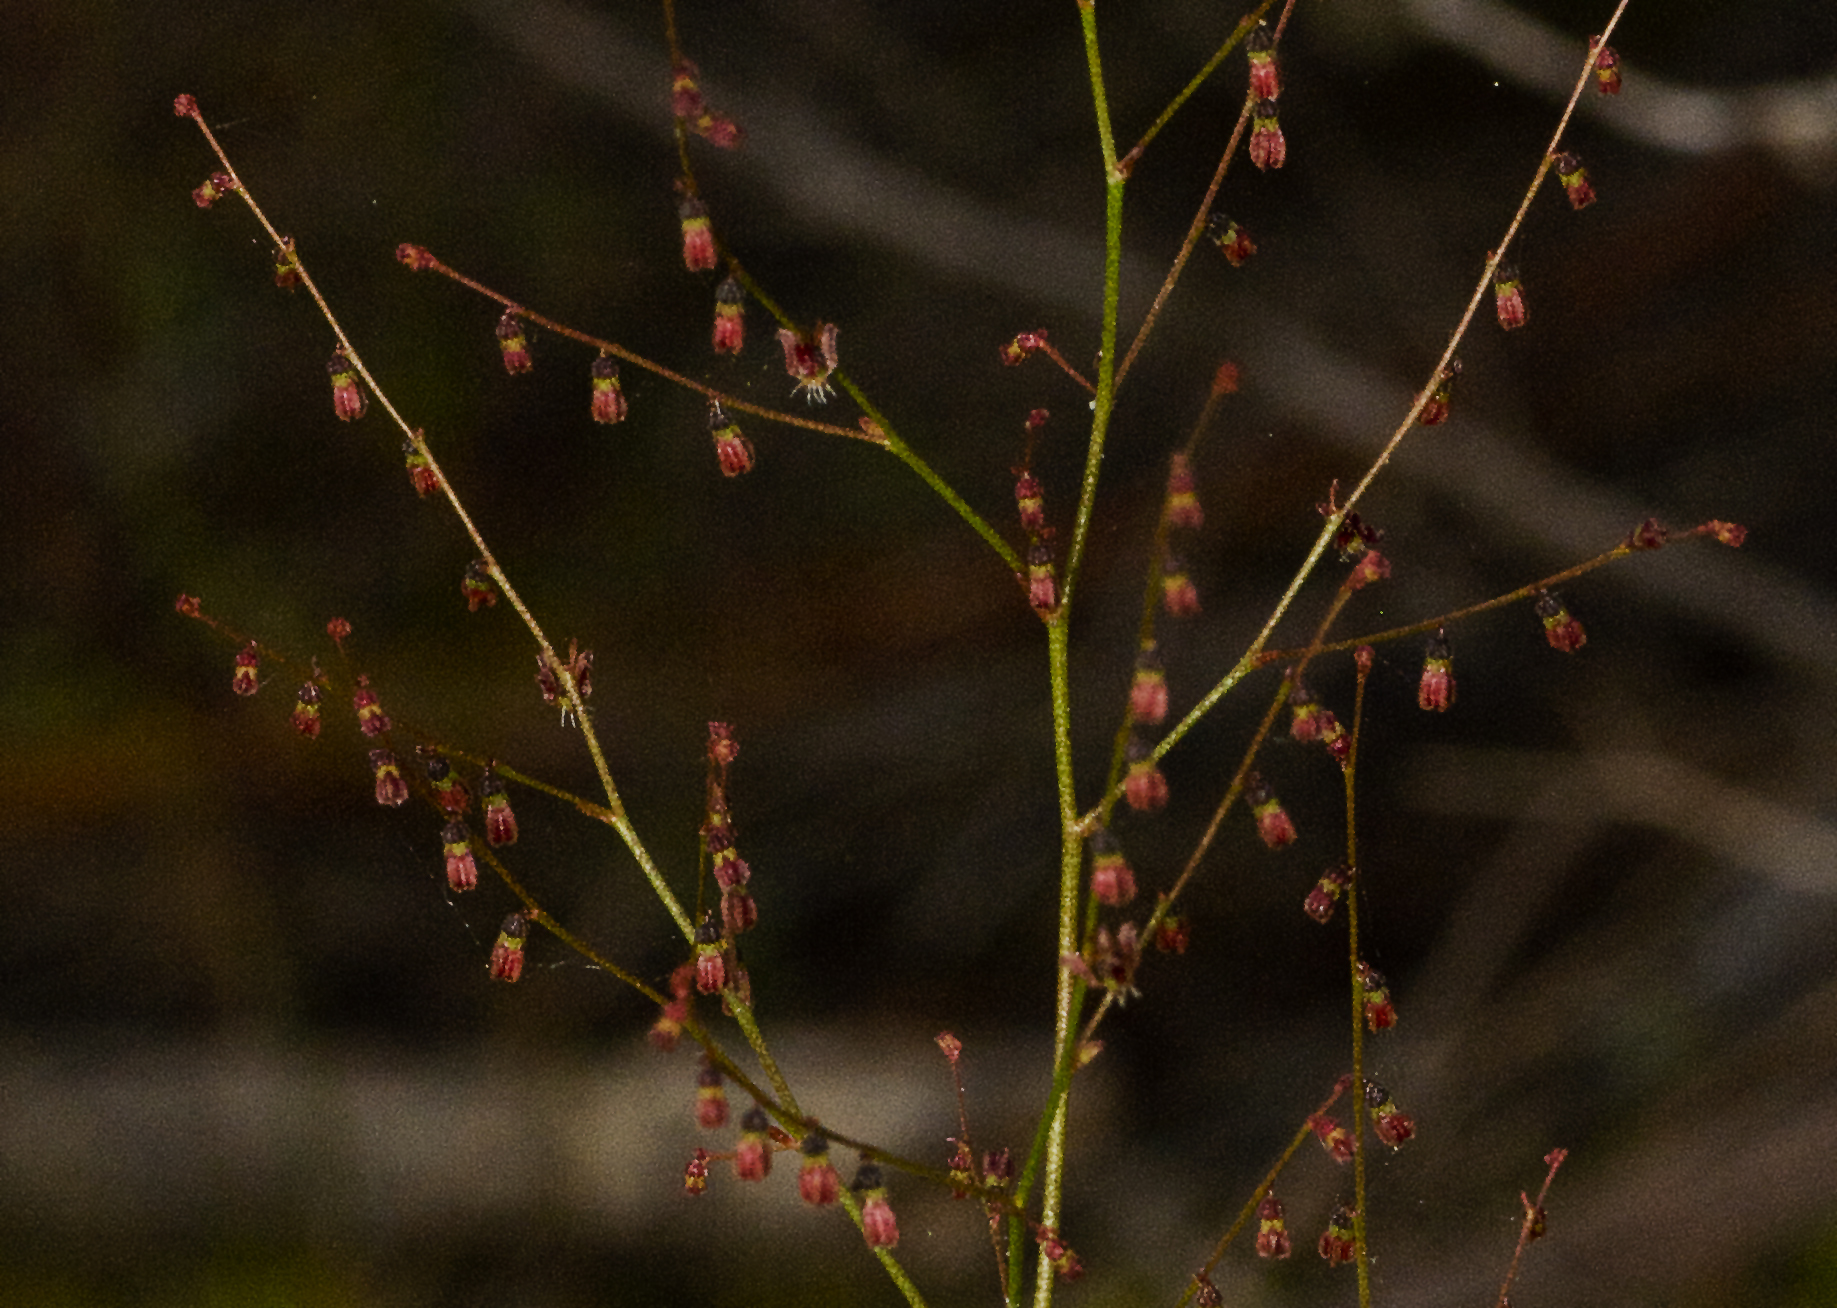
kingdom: Plantae
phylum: Tracheophyta
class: Magnoliopsida
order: Saxifragales
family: Haloragaceae
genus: Gonocarpus
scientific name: Gonocarpus micranthus
